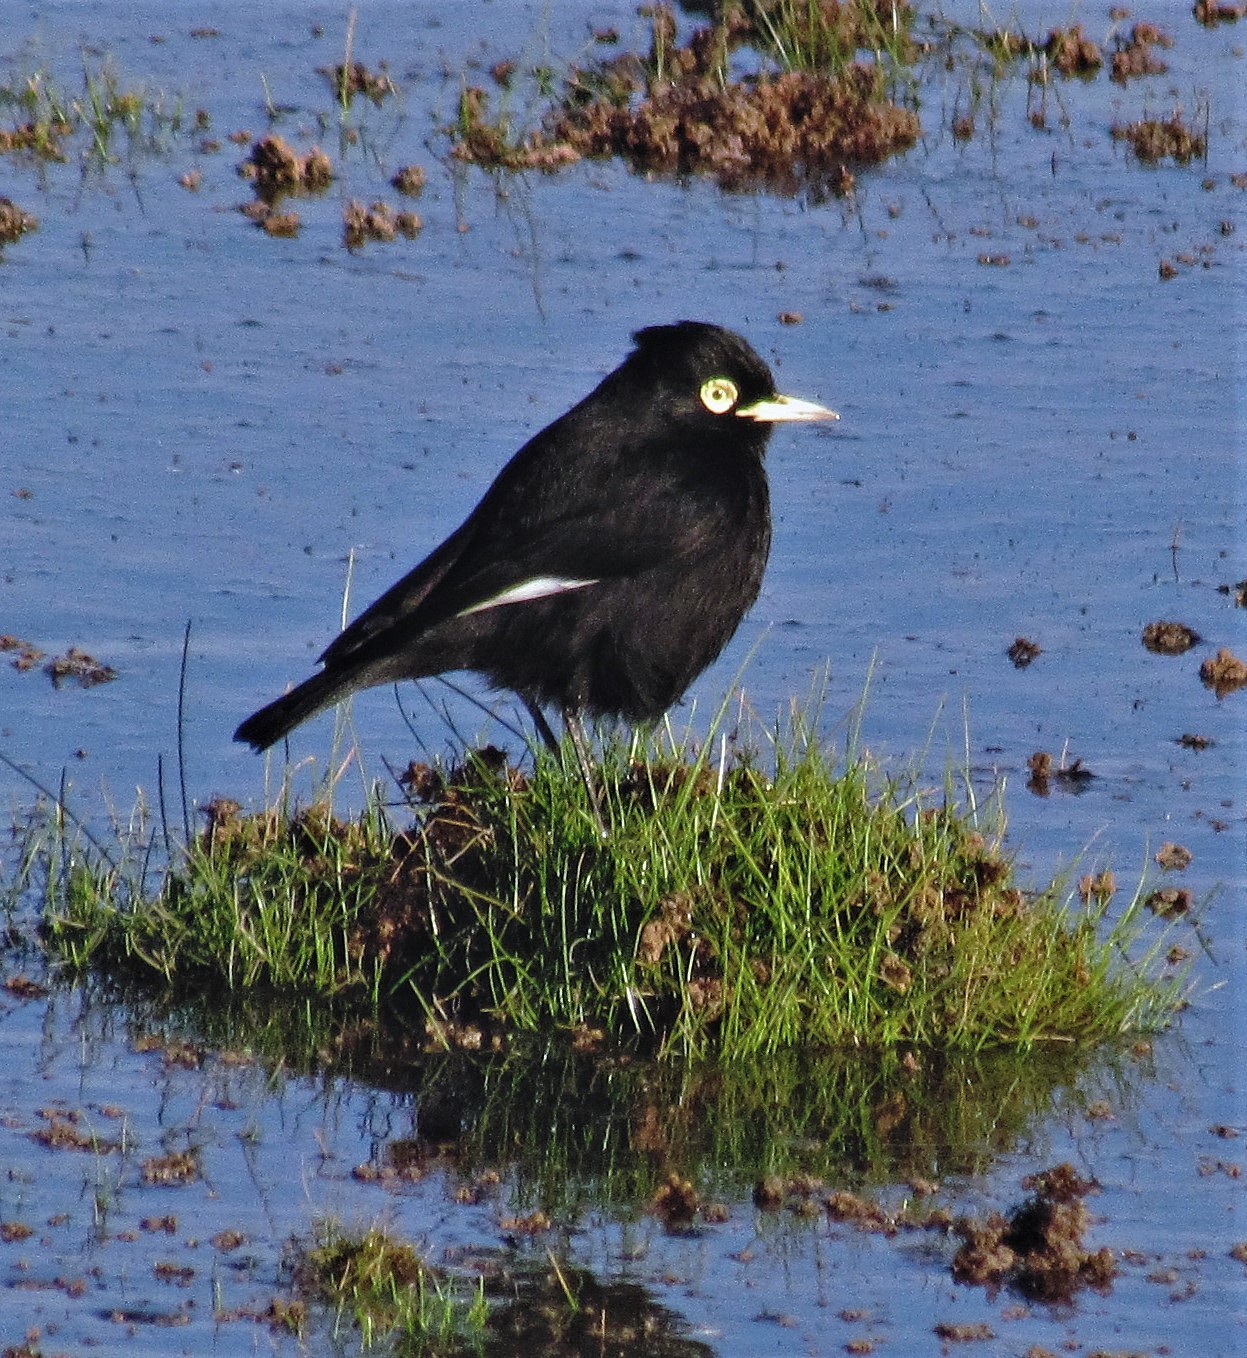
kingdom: Animalia
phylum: Chordata
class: Aves
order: Passeriformes
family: Tyrannidae
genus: Hymenops
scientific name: Hymenops perspicillatus
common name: Spectacled tyrant
